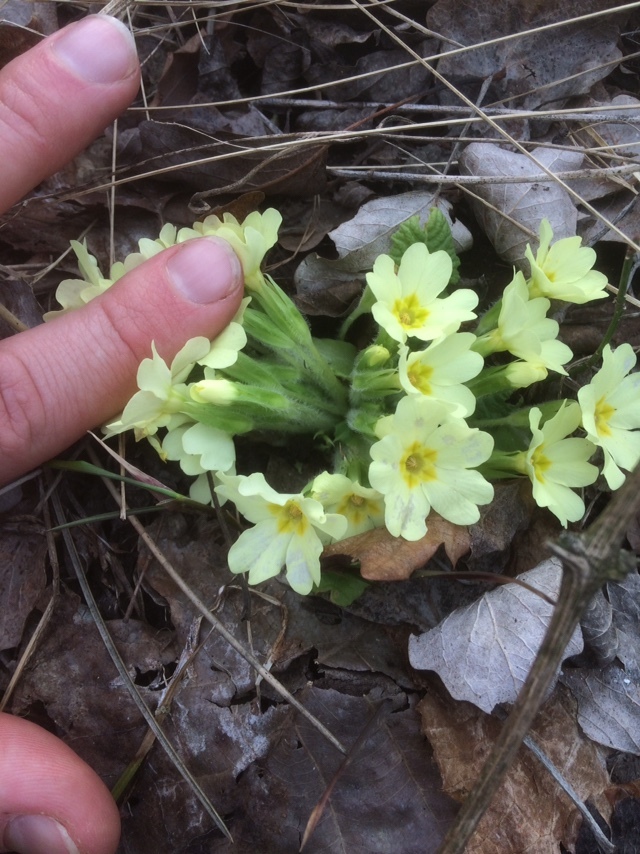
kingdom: Plantae
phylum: Tracheophyta
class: Magnoliopsida
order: Ericales
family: Primulaceae
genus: Primula
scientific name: Primula vulgaris
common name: Primrose
